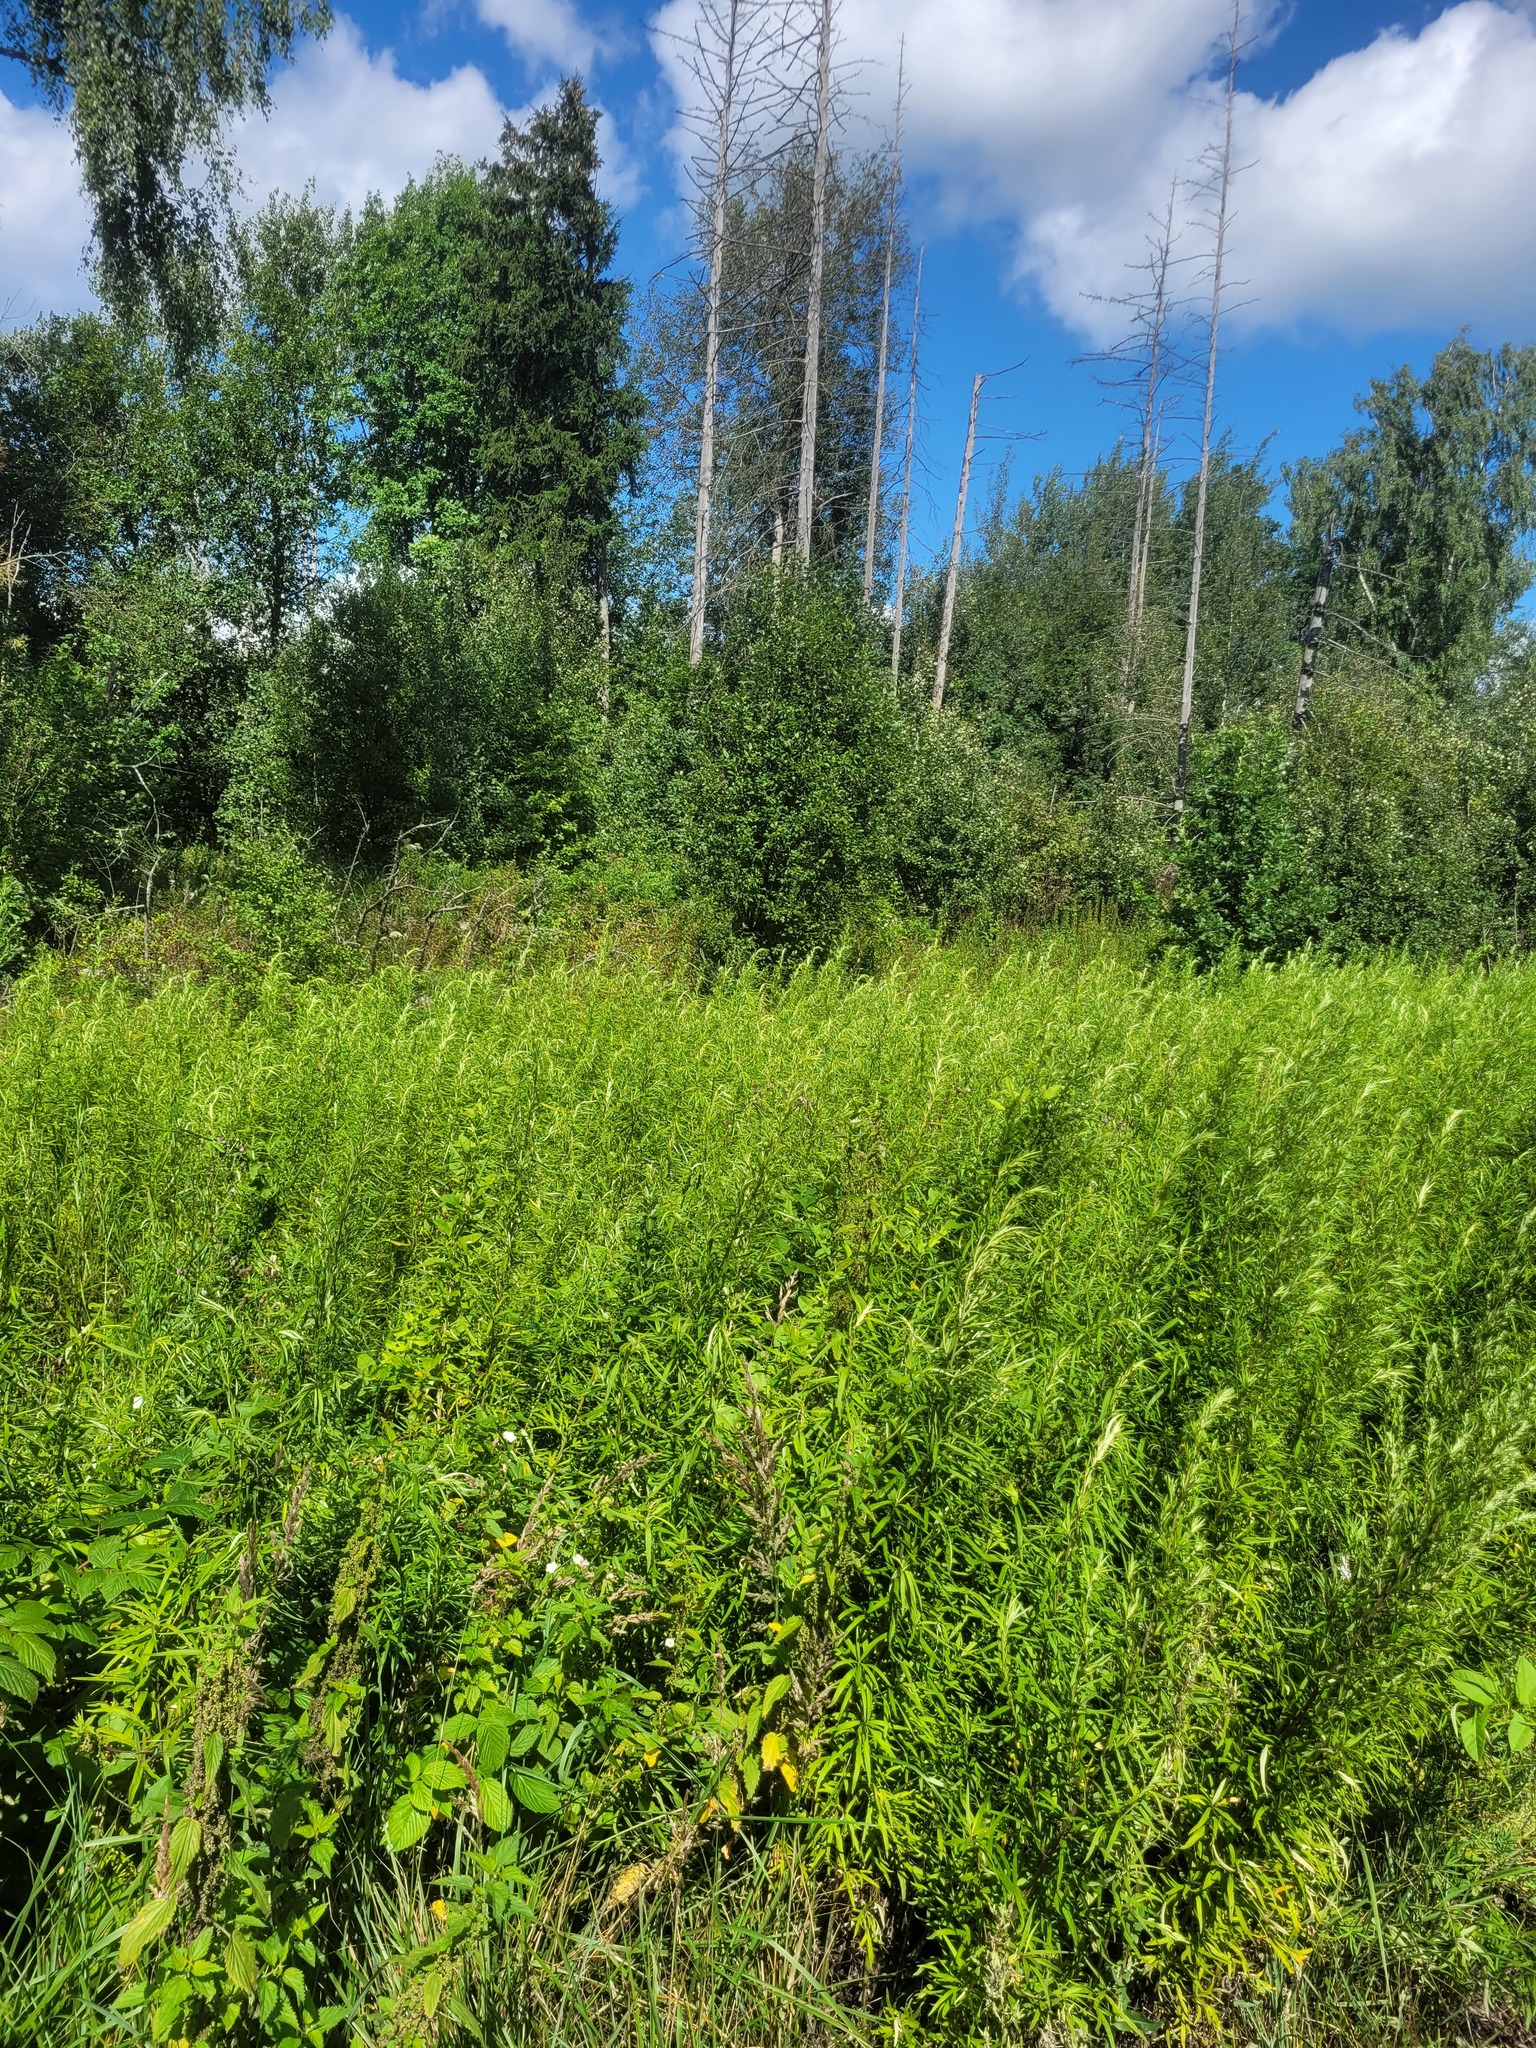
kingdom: Plantae
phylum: Tracheophyta
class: Magnoliopsida
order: Asterales
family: Asteraceae
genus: Artemisia
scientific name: Artemisia umbrosa
